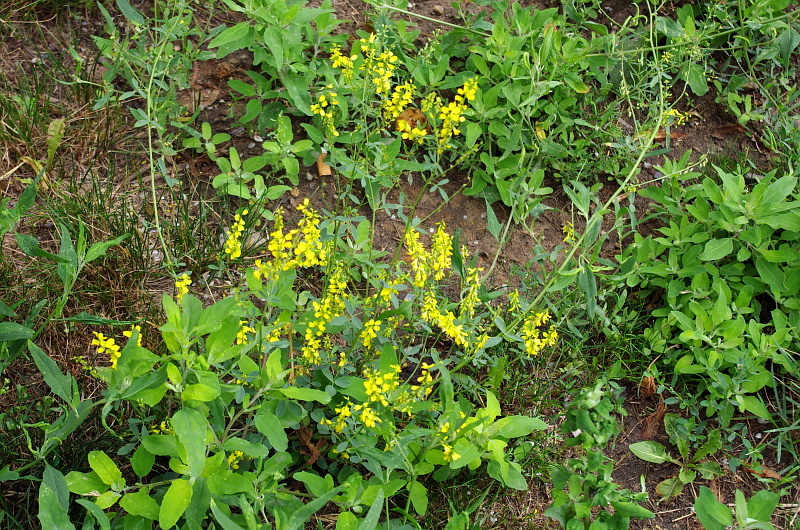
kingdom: Plantae
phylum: Tracheophyta
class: Magnoliopsida
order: Fabales
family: Fabaceae
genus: Melilotus
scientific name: Melilotus officinalis
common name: Sweetclover
